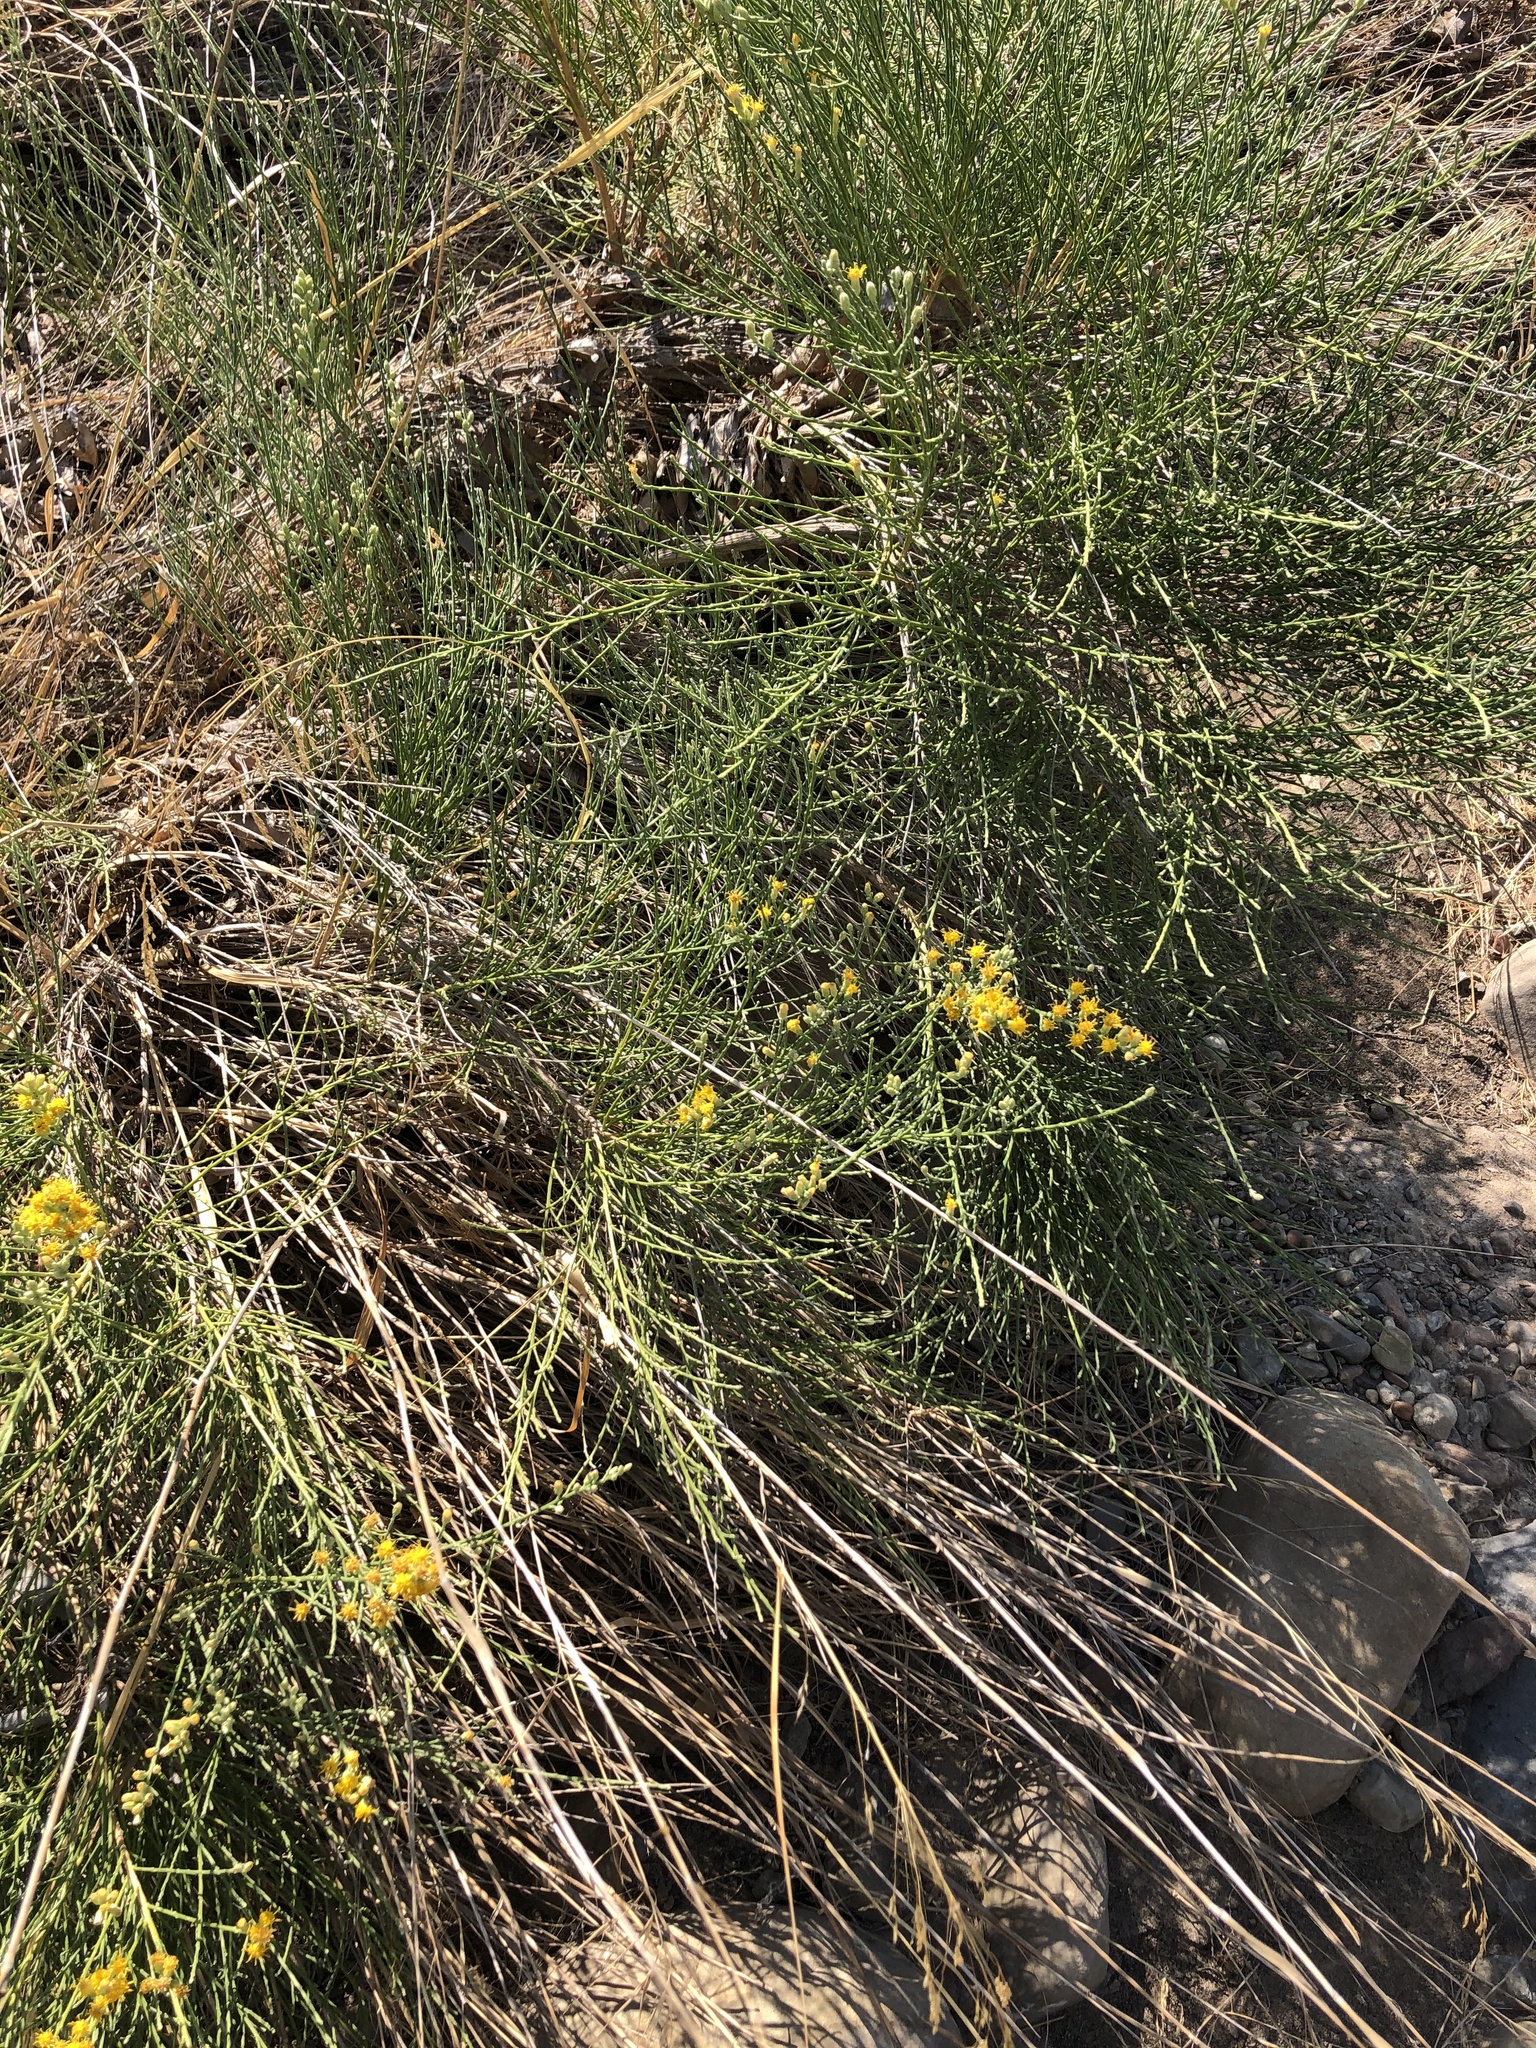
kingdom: Plantae
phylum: Tracheophyta
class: Magnoliopsida
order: Asterales
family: Asteraceae
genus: Lepidospartum
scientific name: Lepidospartum squamatum
